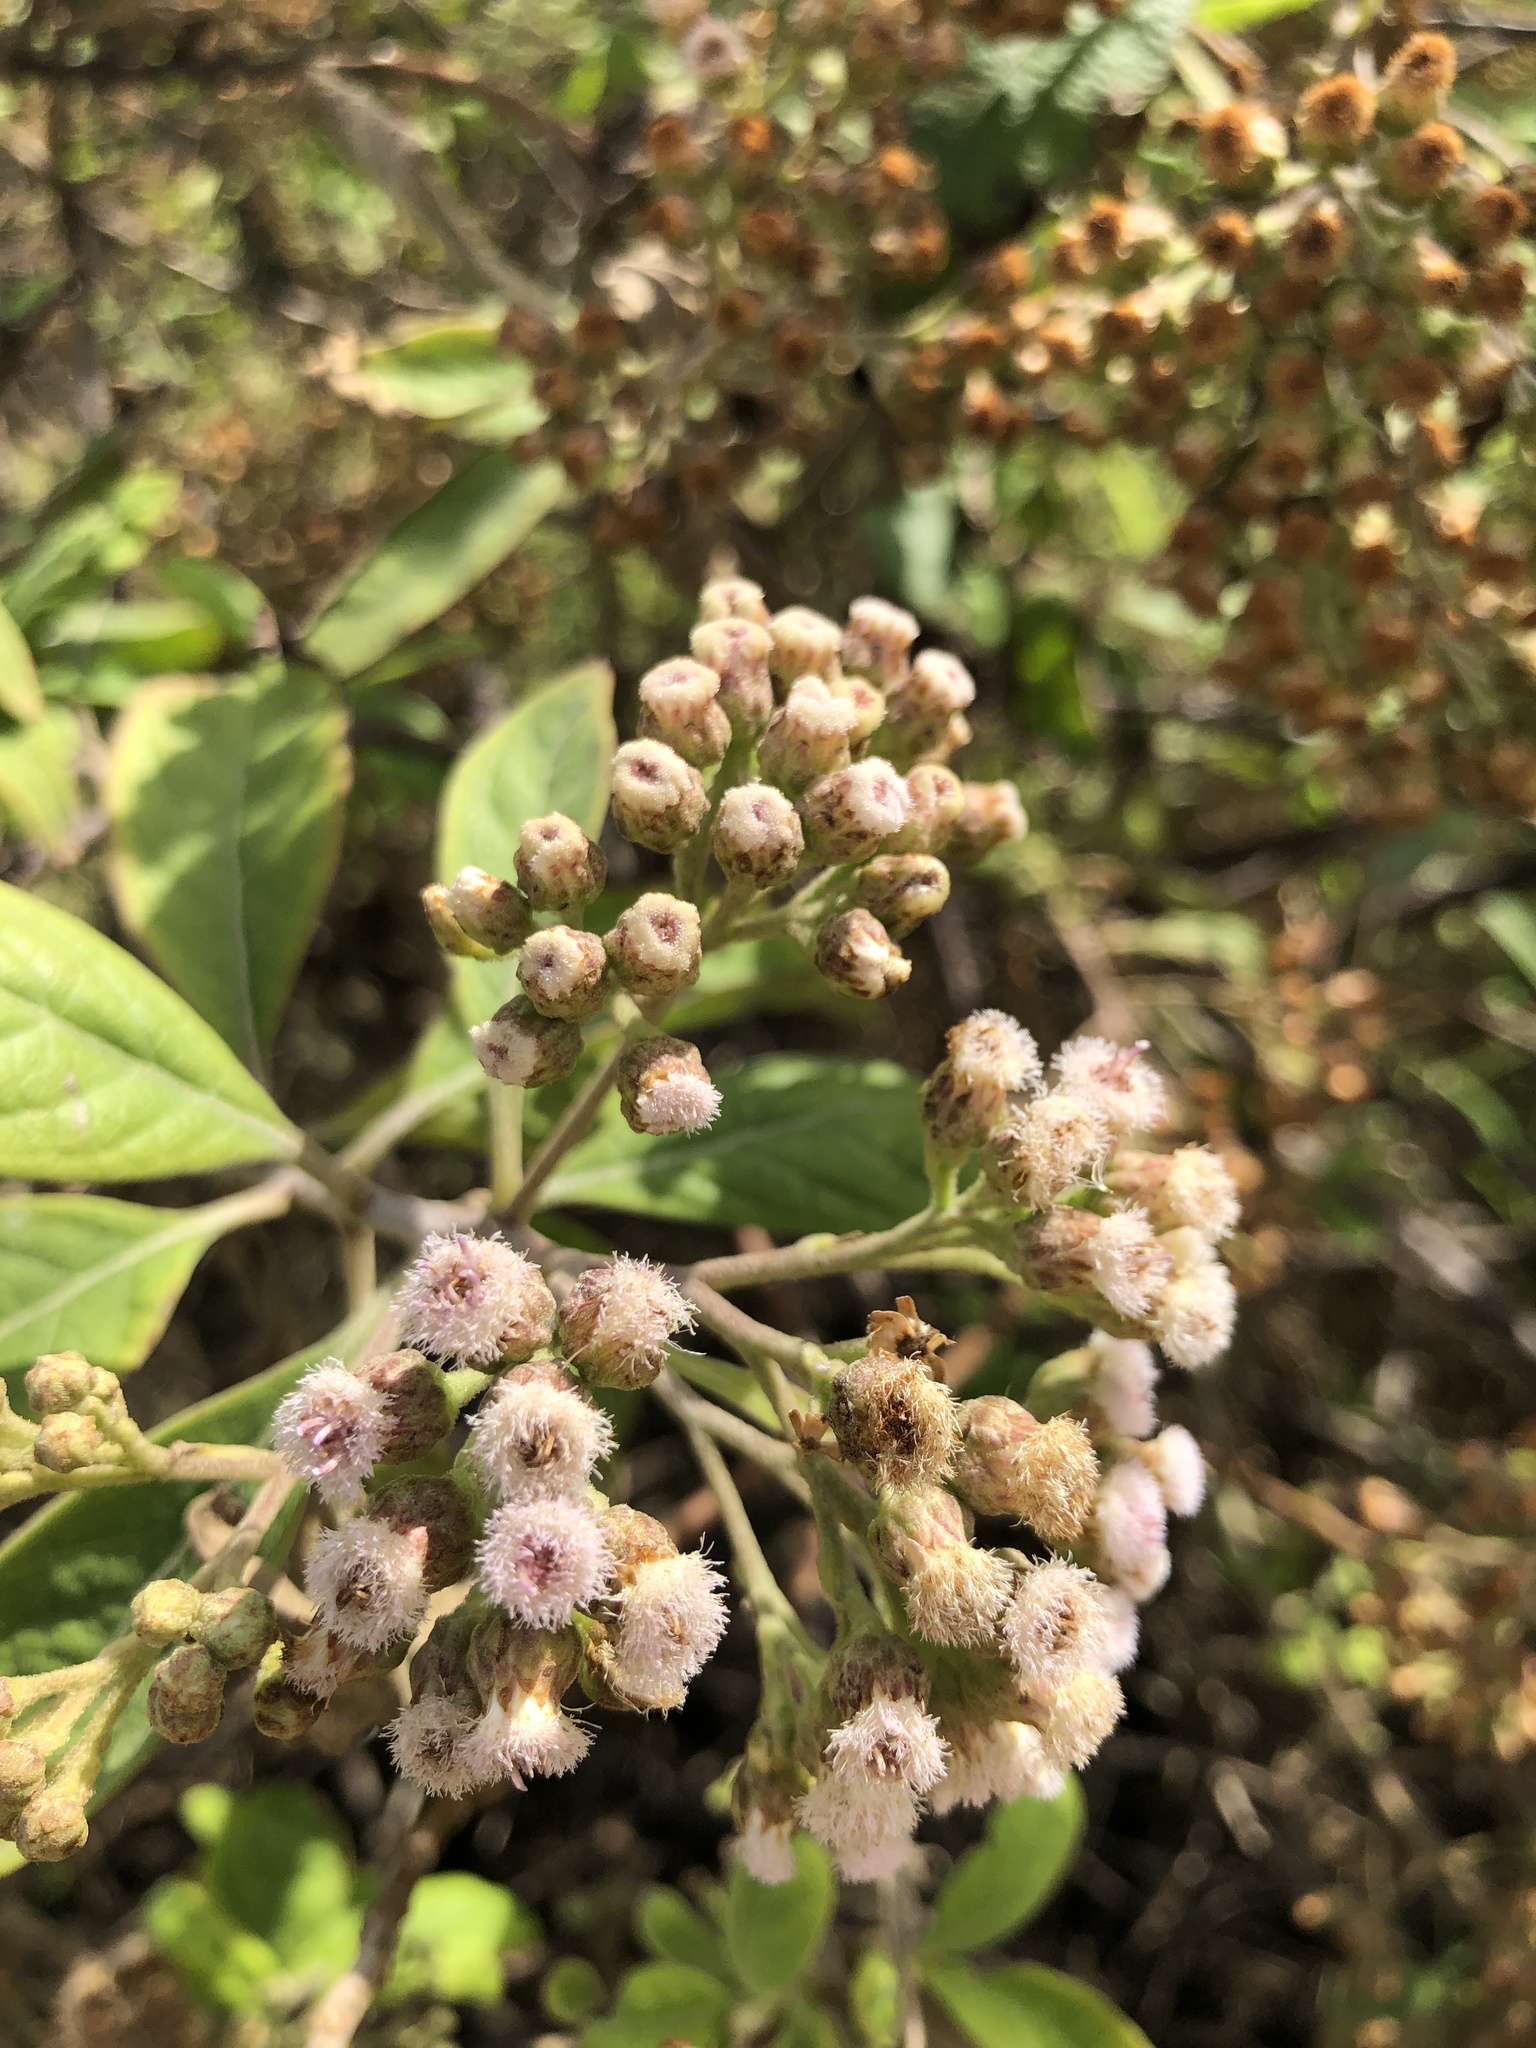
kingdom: Plantae
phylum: Tracheophyta
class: Magnoliopsida
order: Asterales
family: Asteraceae
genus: Pluchea
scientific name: Pluchea carolinensis
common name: Marsh fleabane
